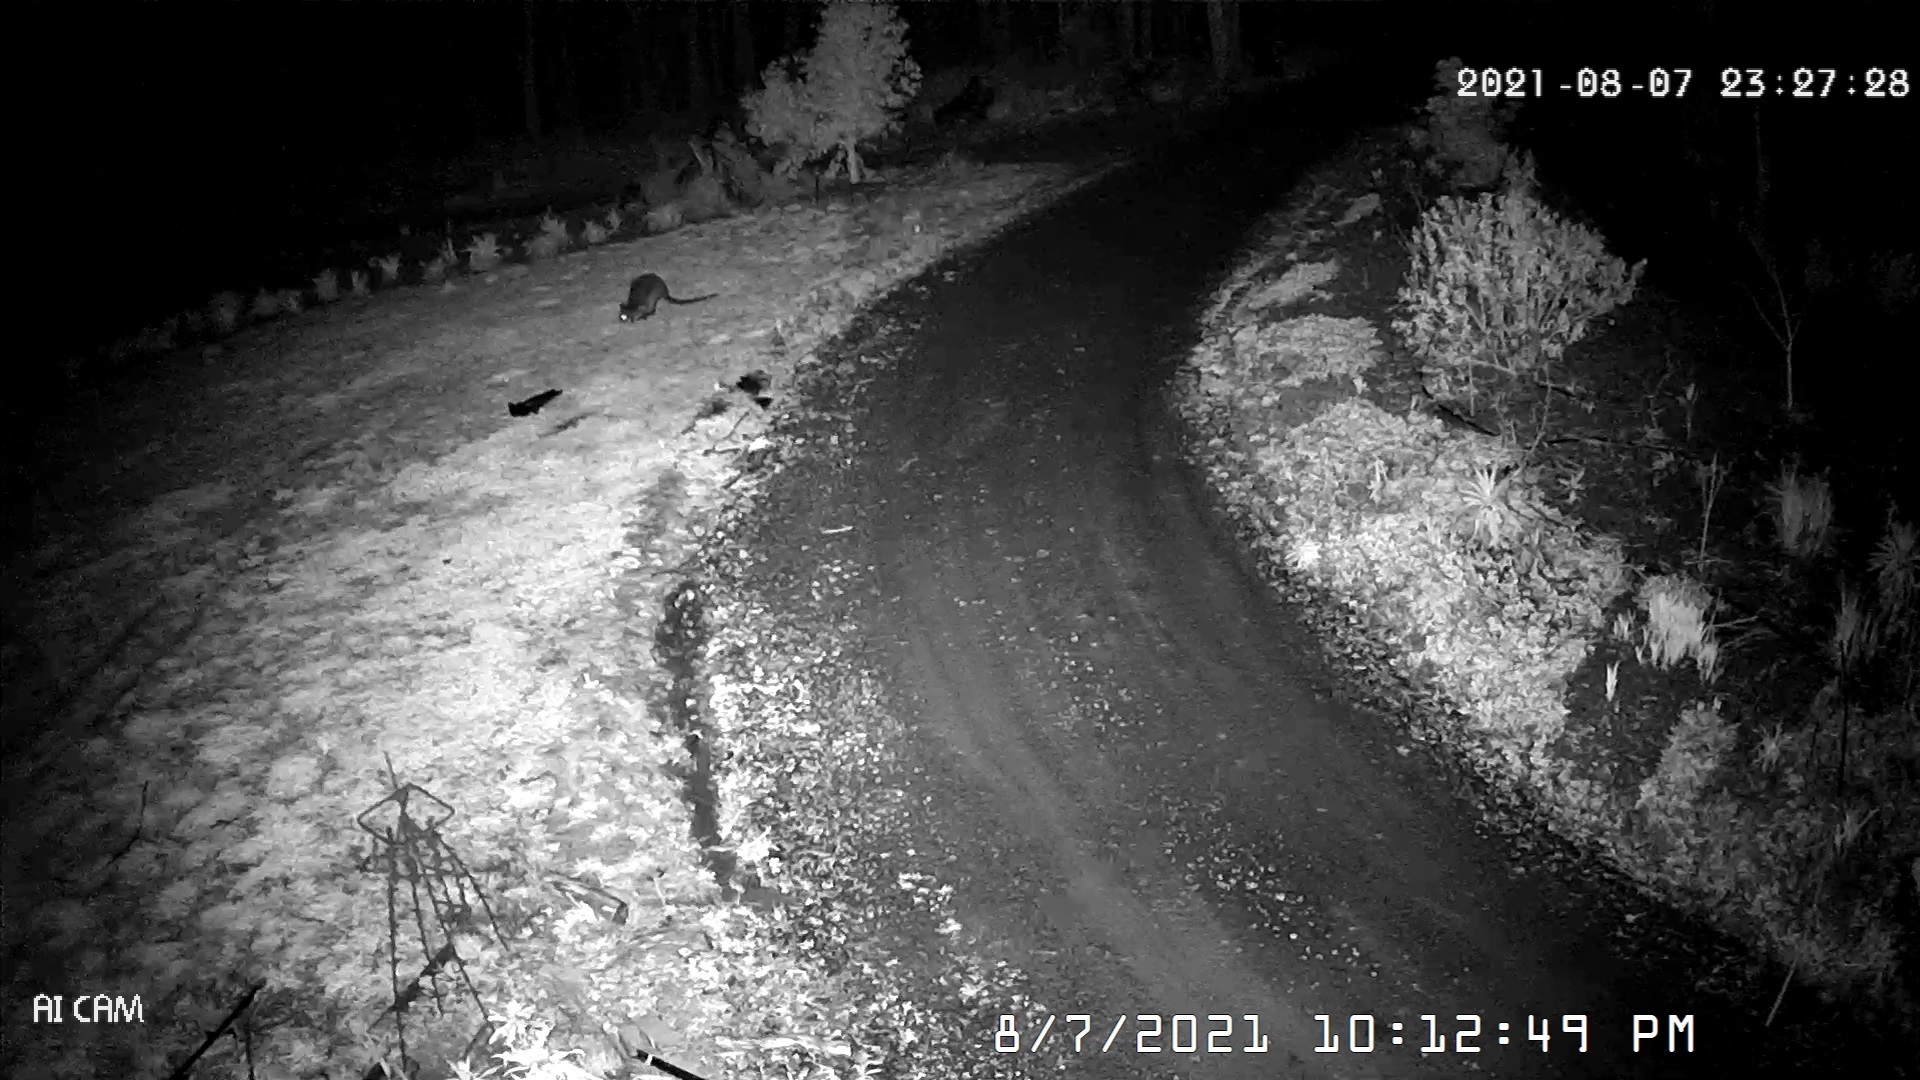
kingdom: Animalia
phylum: Chordata
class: Mammalia
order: Diprotodontia
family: Macropodidae
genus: Wallabia
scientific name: Wallabia bicolor
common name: Swamp wallaby
